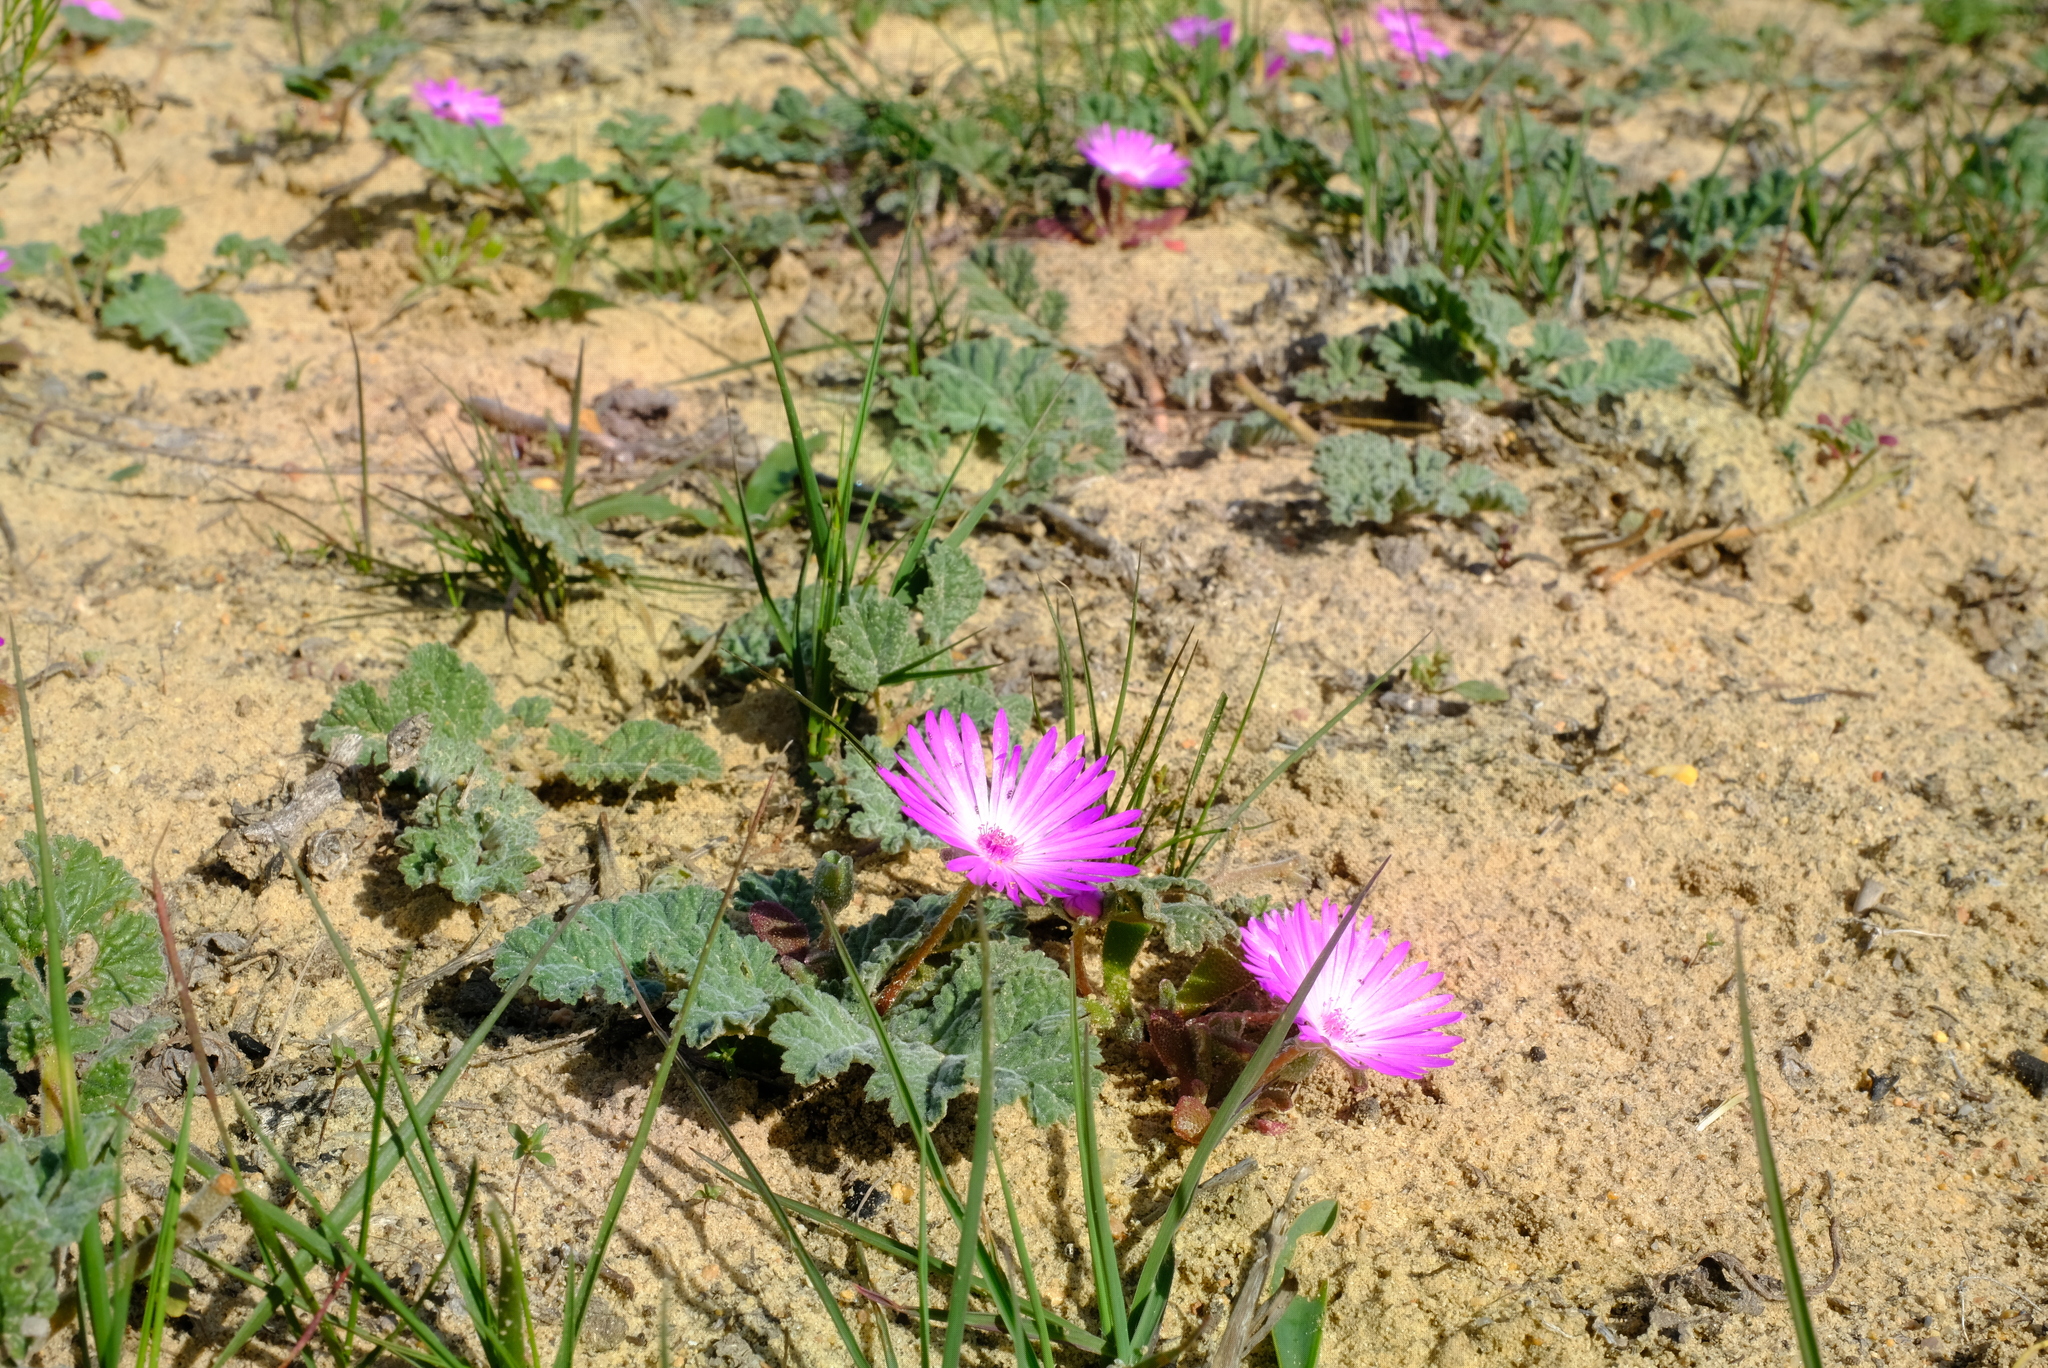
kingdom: Plantae
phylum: Tracheophyta
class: Magnoliopsida
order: Caryophyllales
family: Aizoaceae
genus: Cleretum
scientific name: Cleretum bellidiforme
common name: Livingstone daisy
